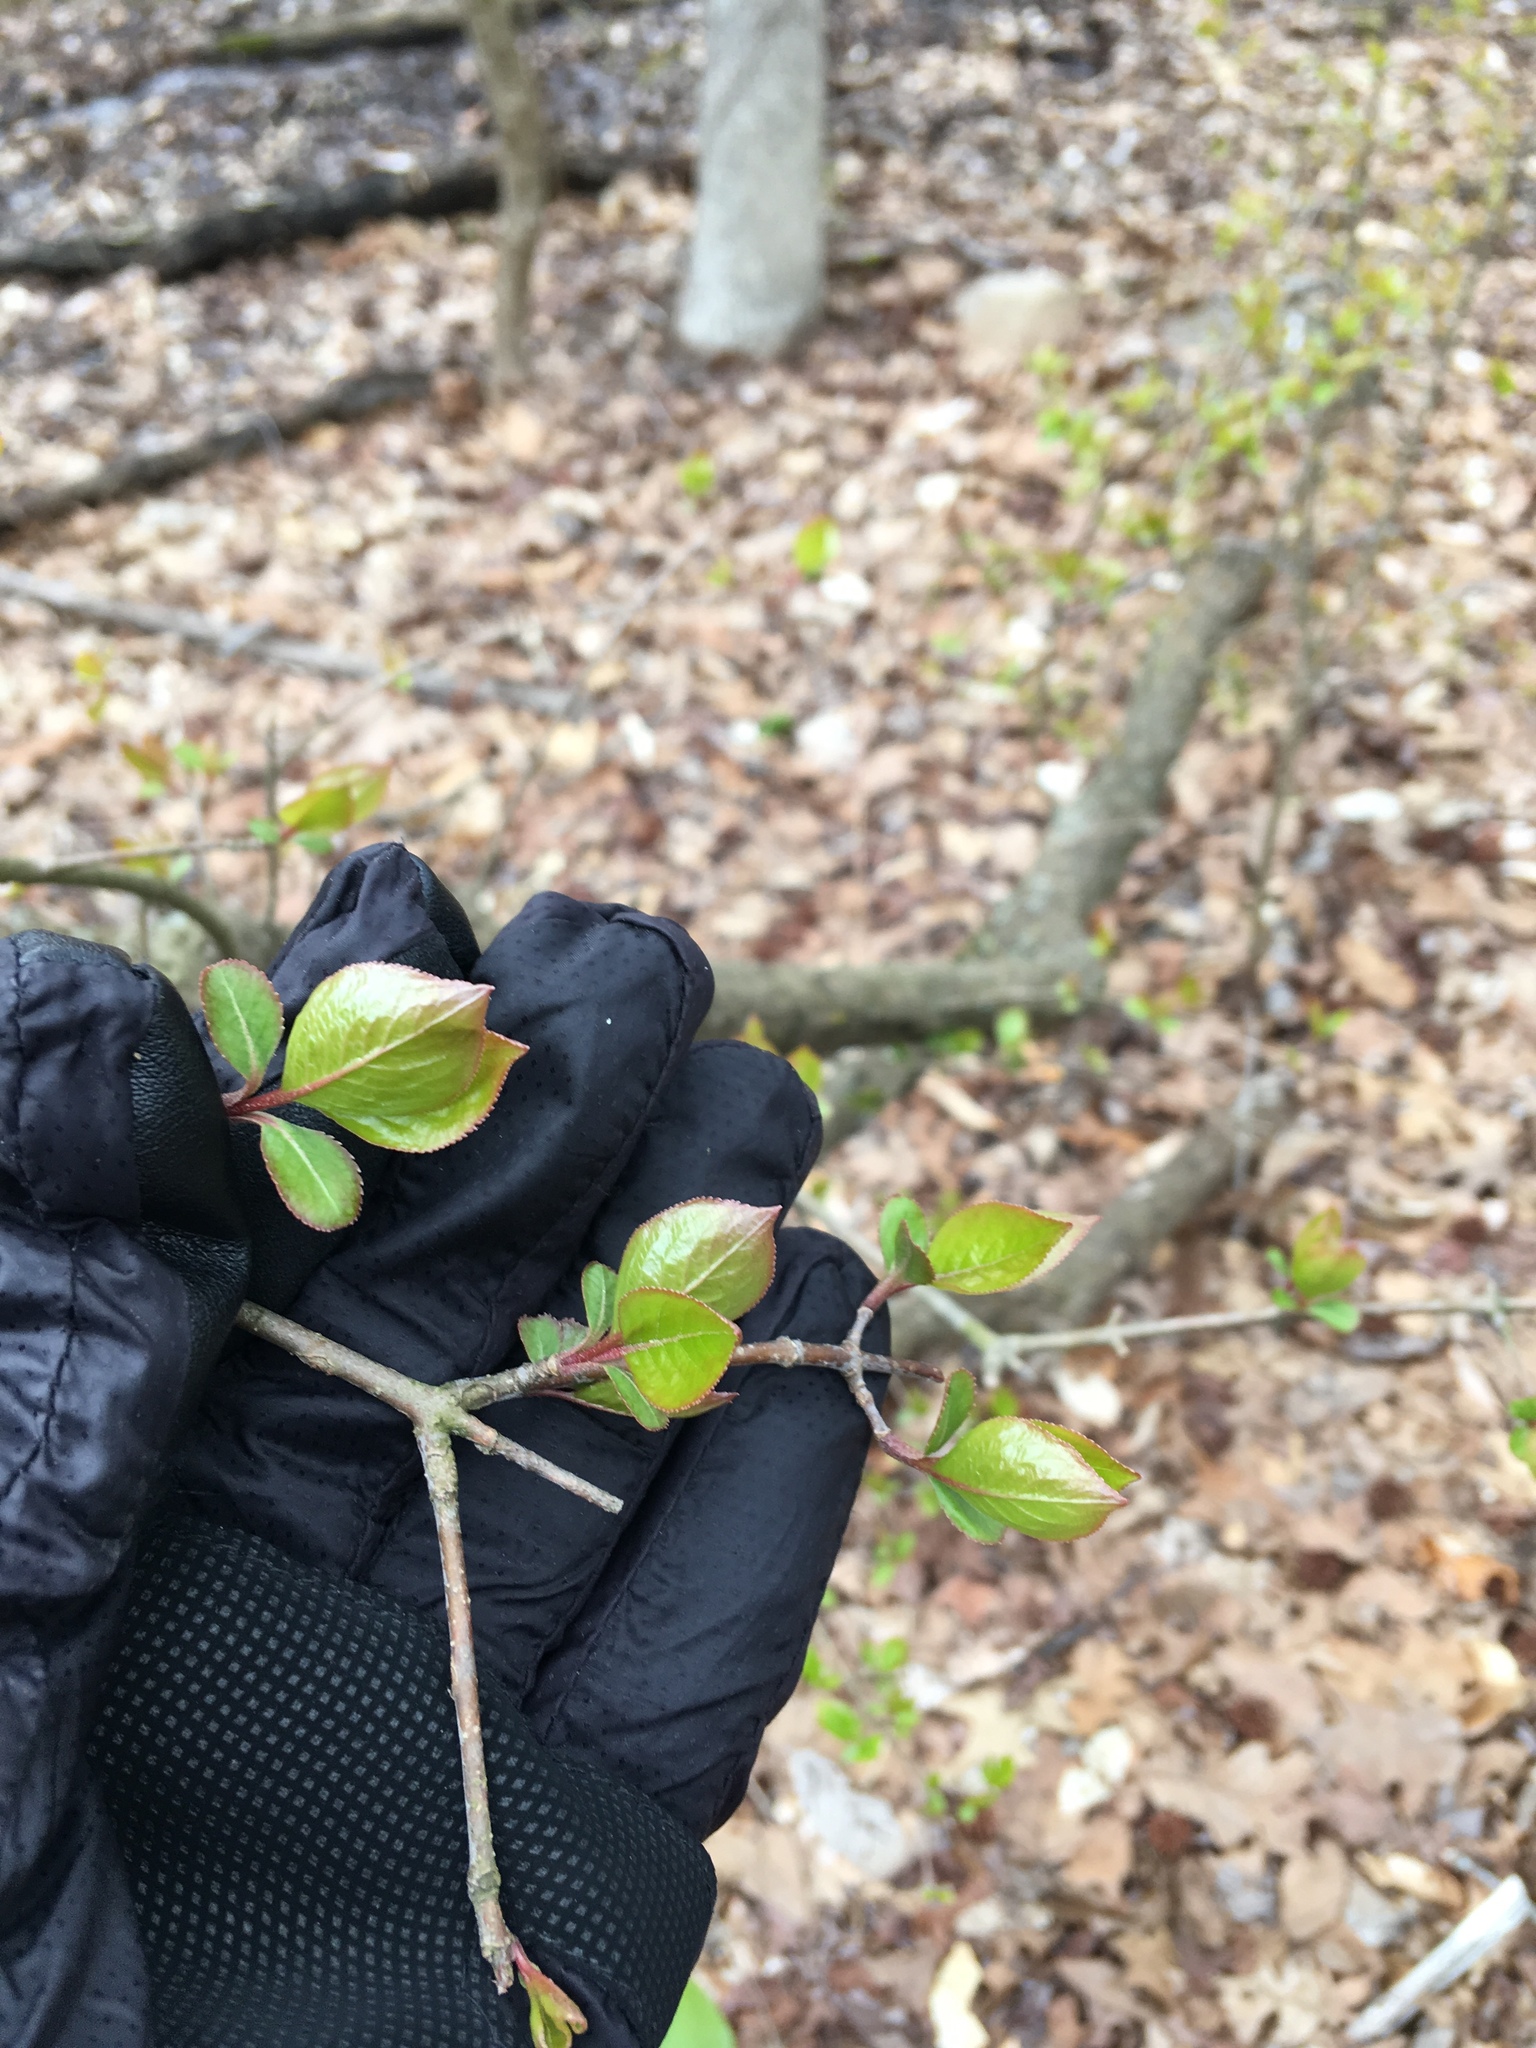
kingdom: Plantae
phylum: Tracheophyta
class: Magnoliopsida
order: Dipsacales
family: Viburnaceae
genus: Viburnum
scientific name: Viburnum prunifolium
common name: Black haw
